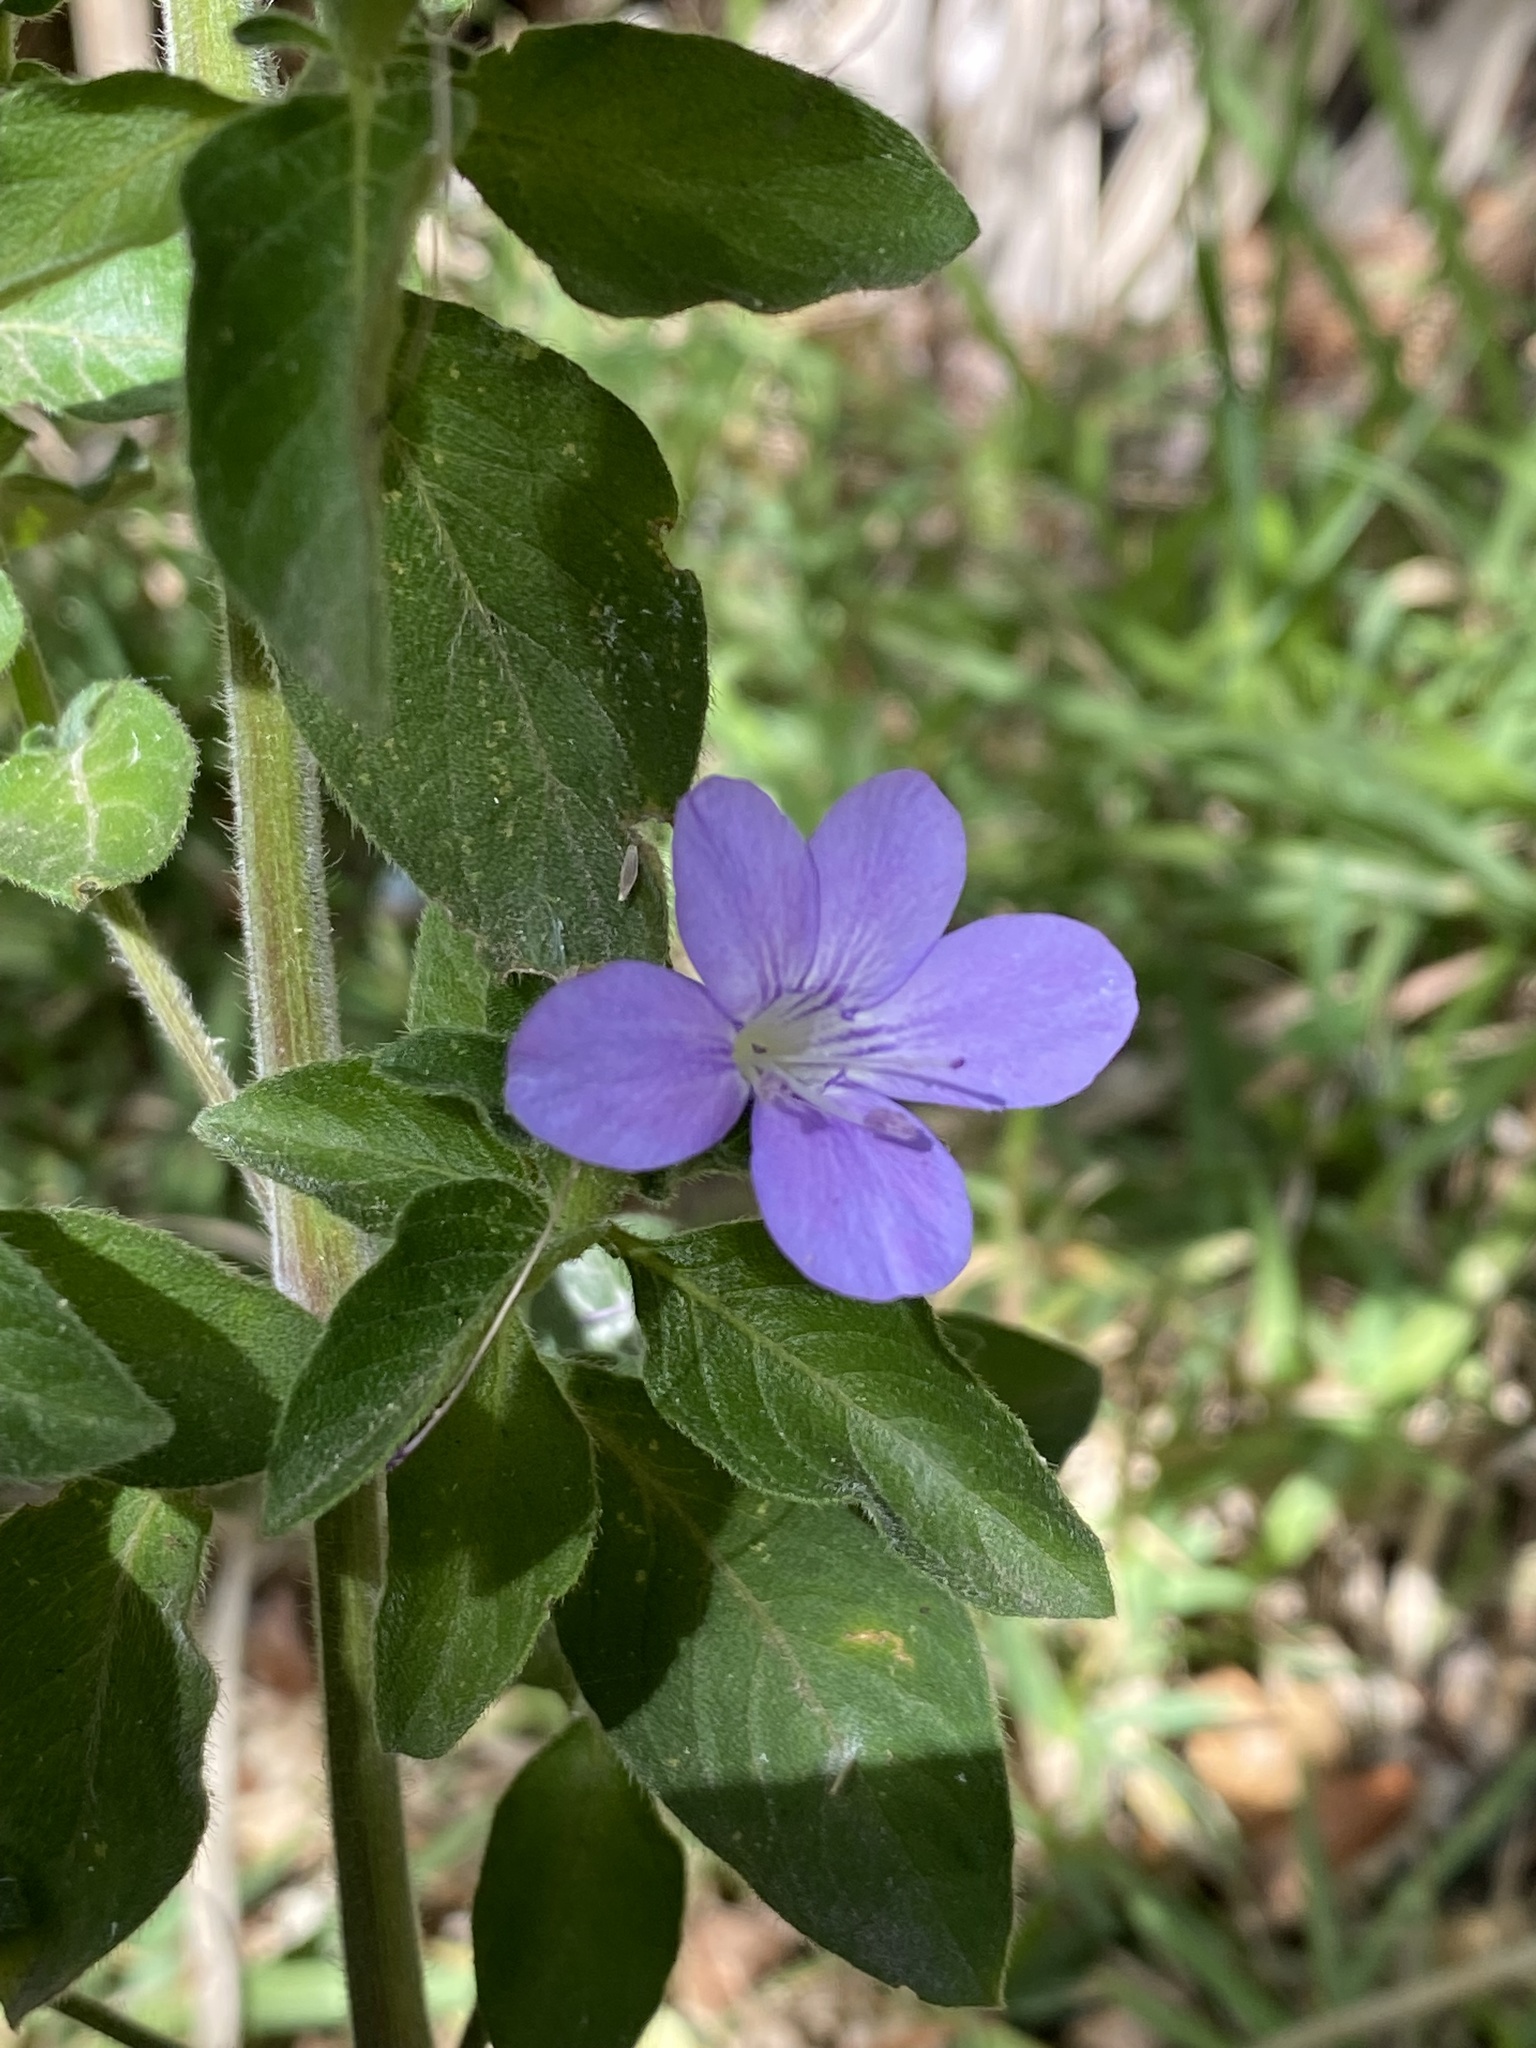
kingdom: Plantae
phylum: Tracheophyta
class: Magnoliopsida
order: Lamiales
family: Acanthaceae
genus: Barleria
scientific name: Barleria obtusa
